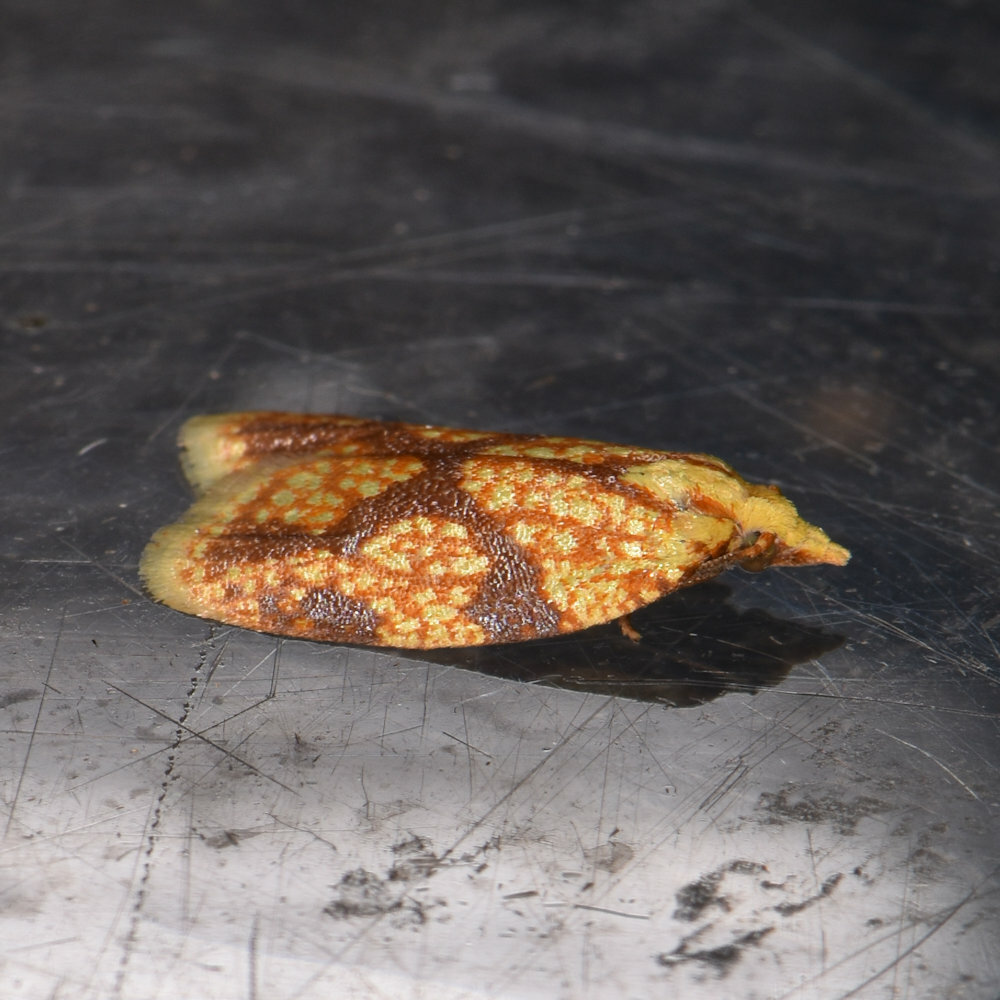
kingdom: Animalia
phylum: Arthropoda
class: Insecta
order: Lepidoptera
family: Tortricidae
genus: Sparganothis
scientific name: Sparganothis sulfureana
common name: Sparganothis fruitworm moth
